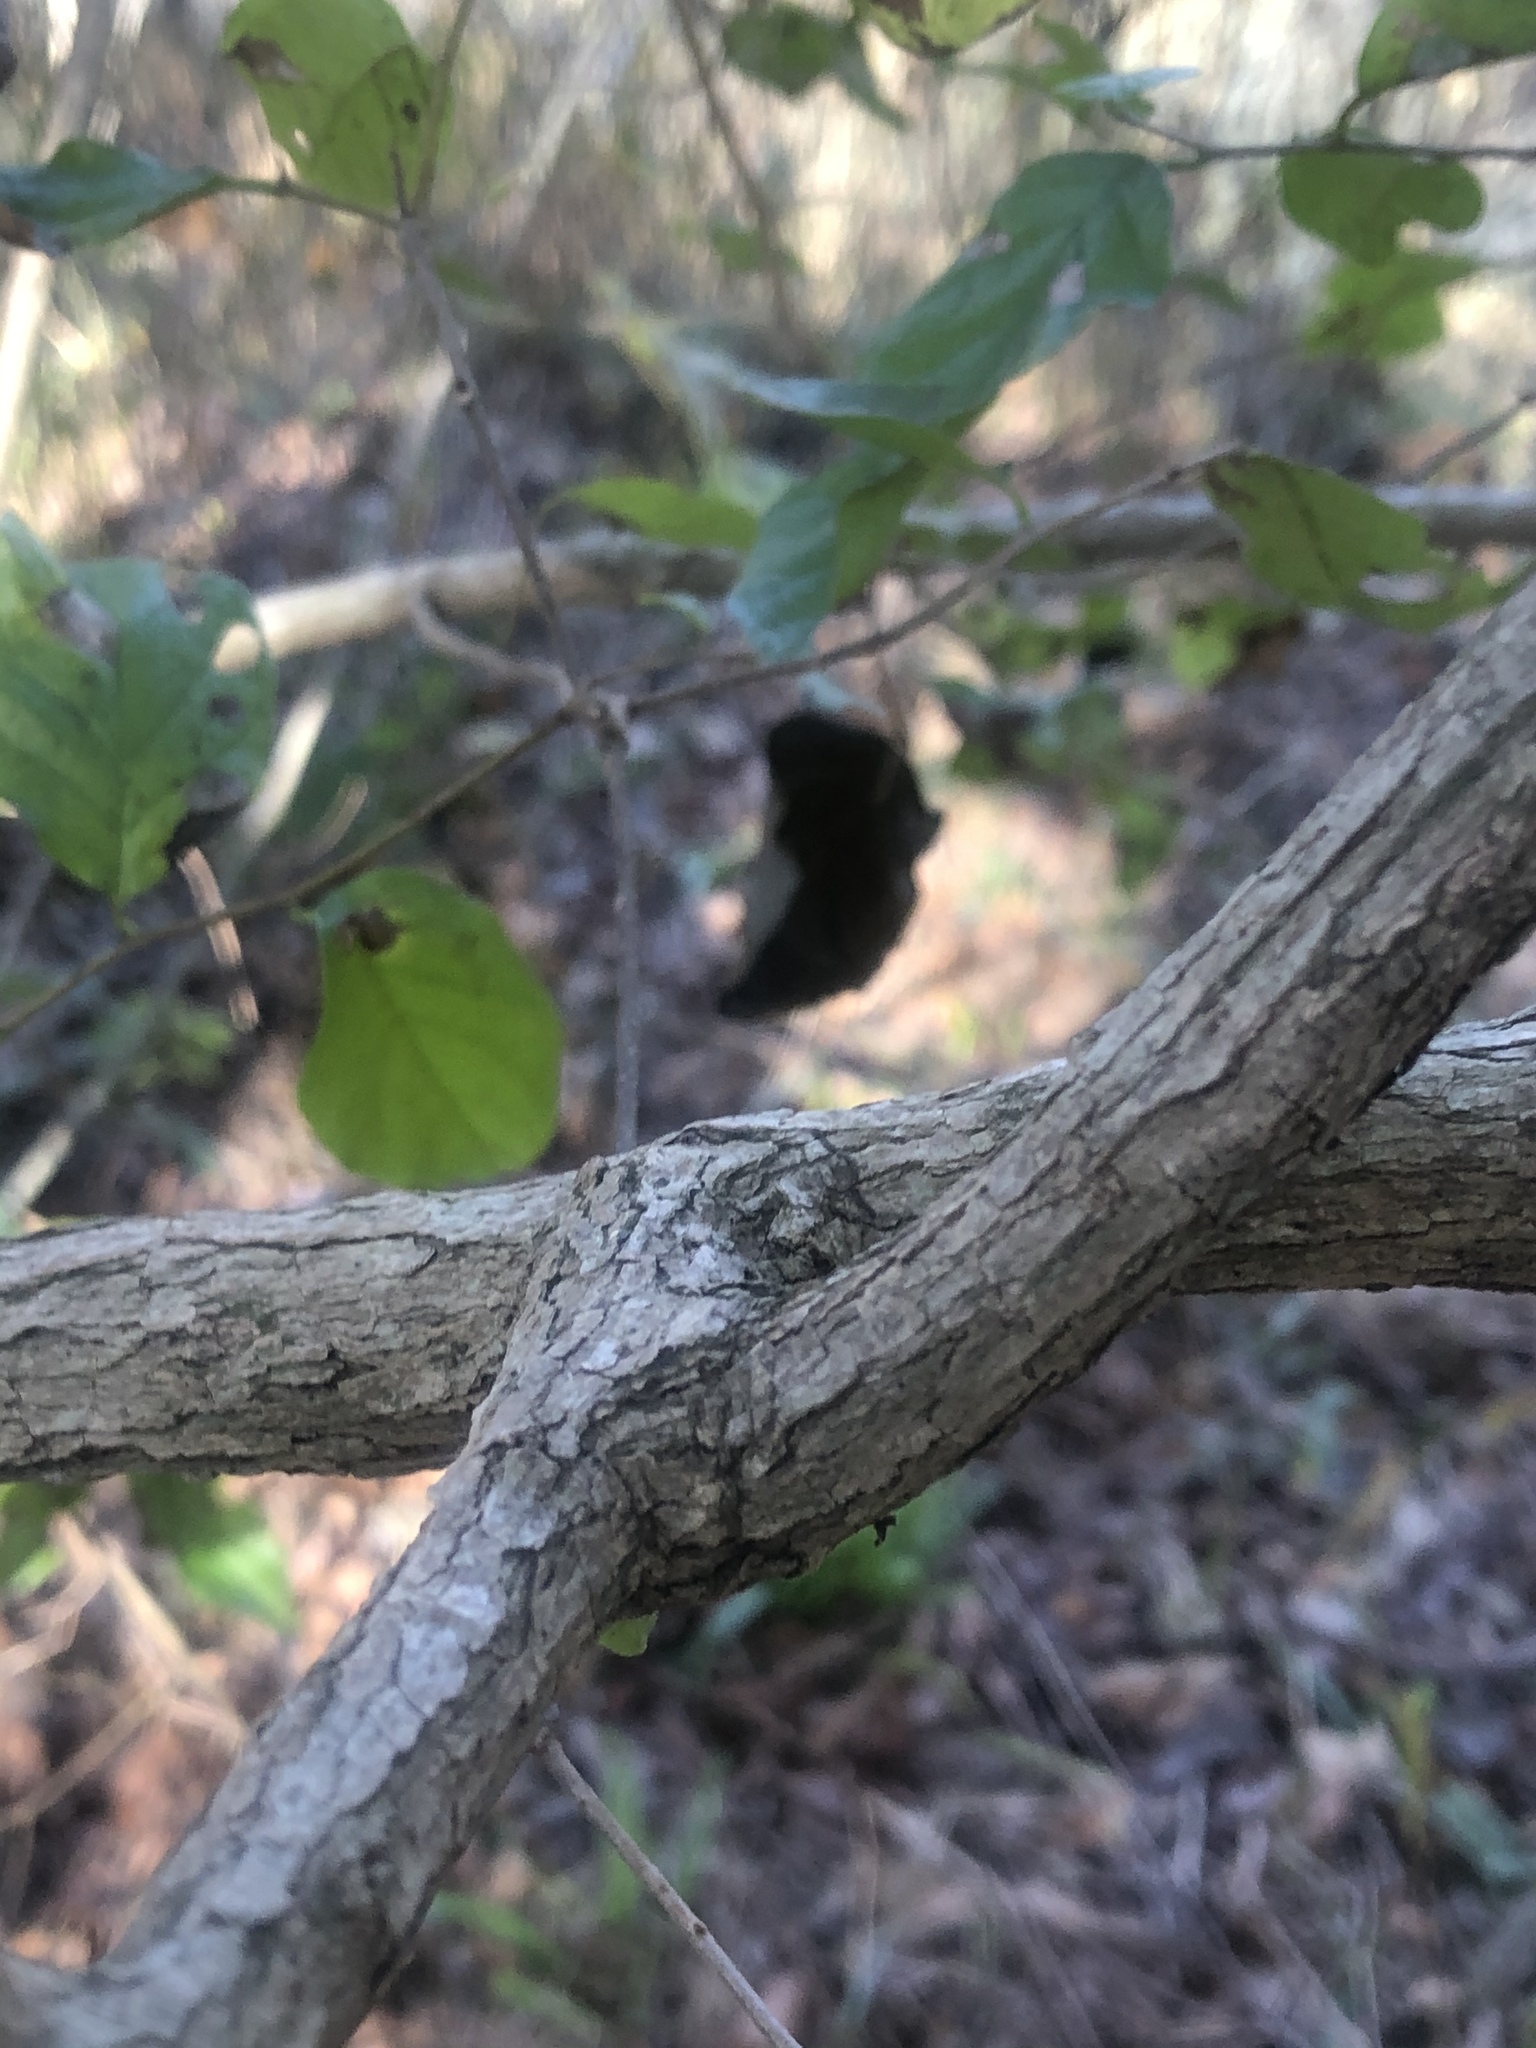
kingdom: Plantae
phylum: Tracheophyta
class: Magnoliopsida
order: Boraginales
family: Ehretiaceae
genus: Ehretia
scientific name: Ehretia anacua
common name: Sugarberry
